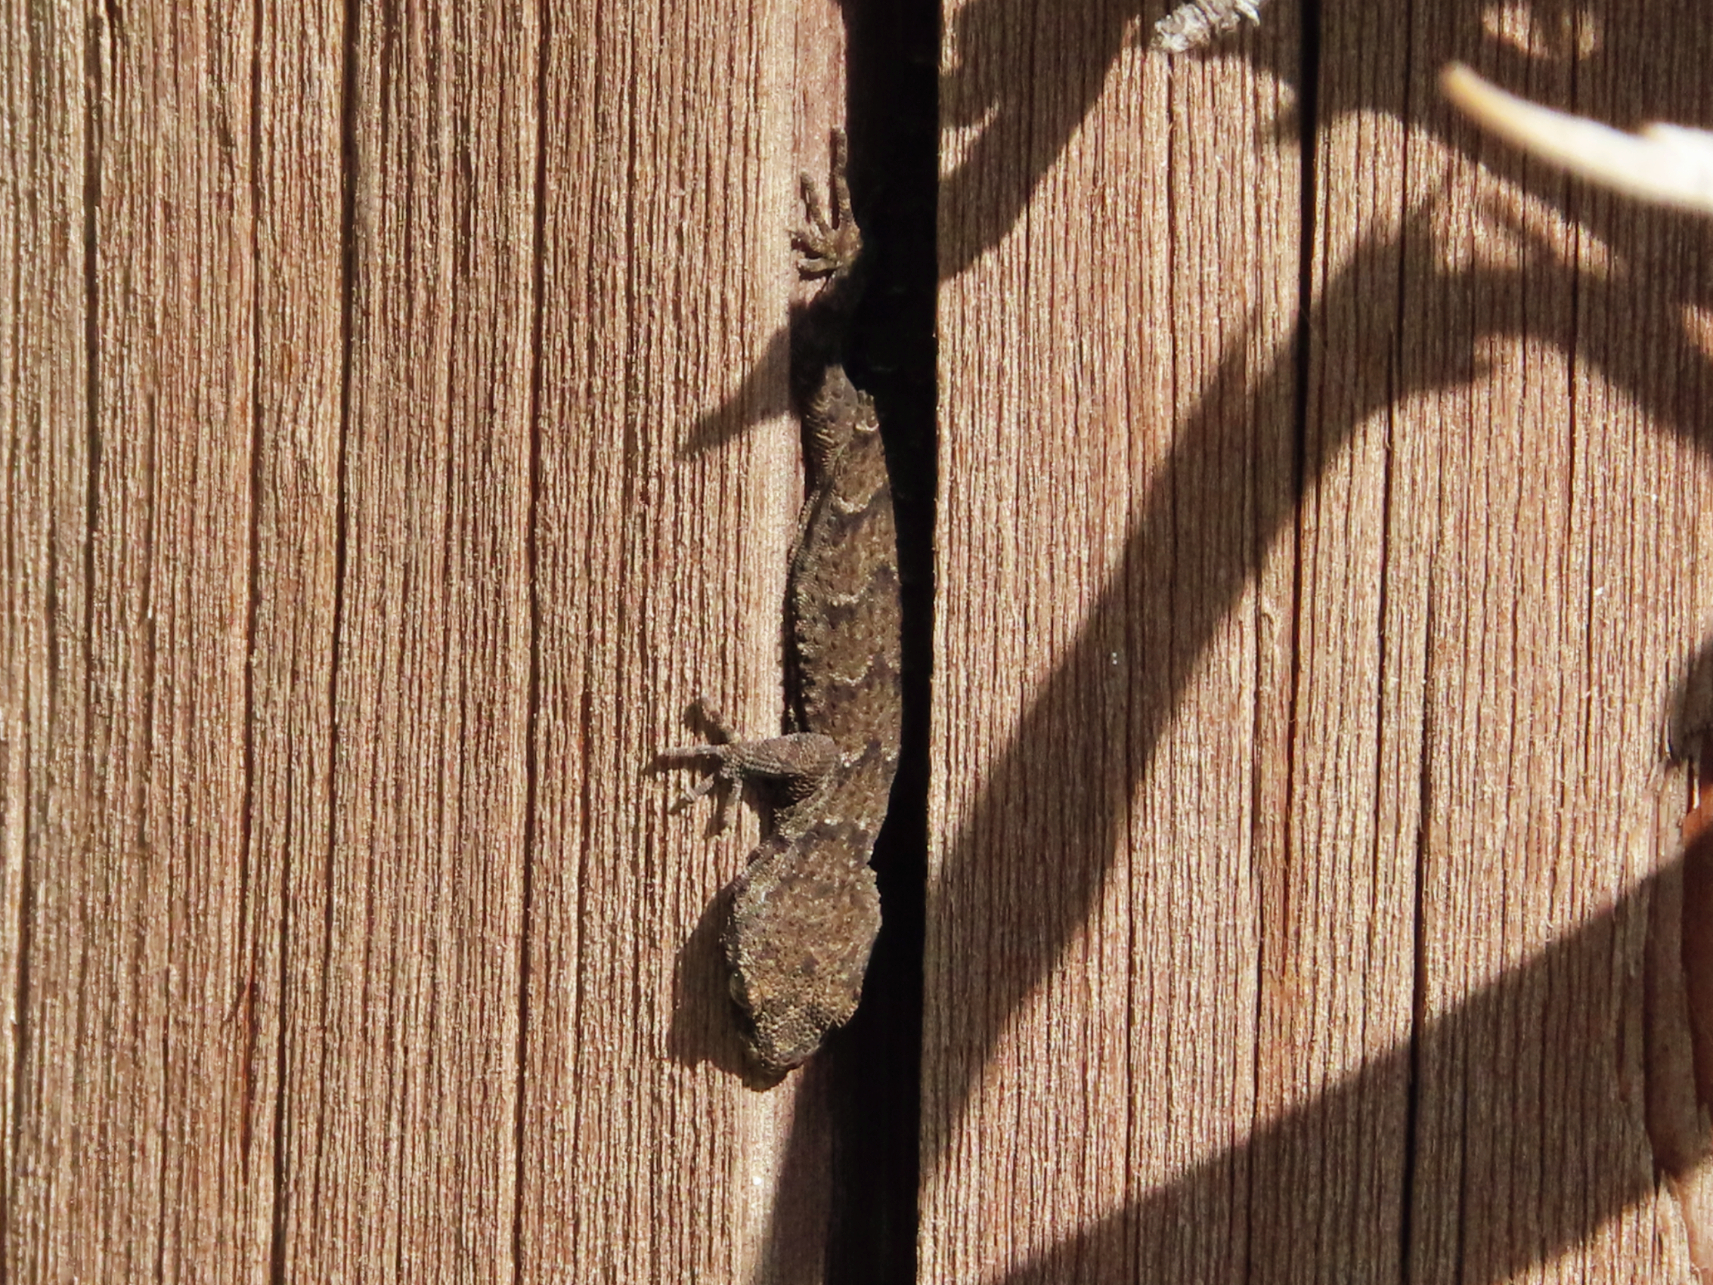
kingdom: Animalia
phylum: Chordata
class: Squamata
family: Gekkonidae
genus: Mediodactylus
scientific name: Mediodactylus kotschyi
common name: Kotschy's gecko
